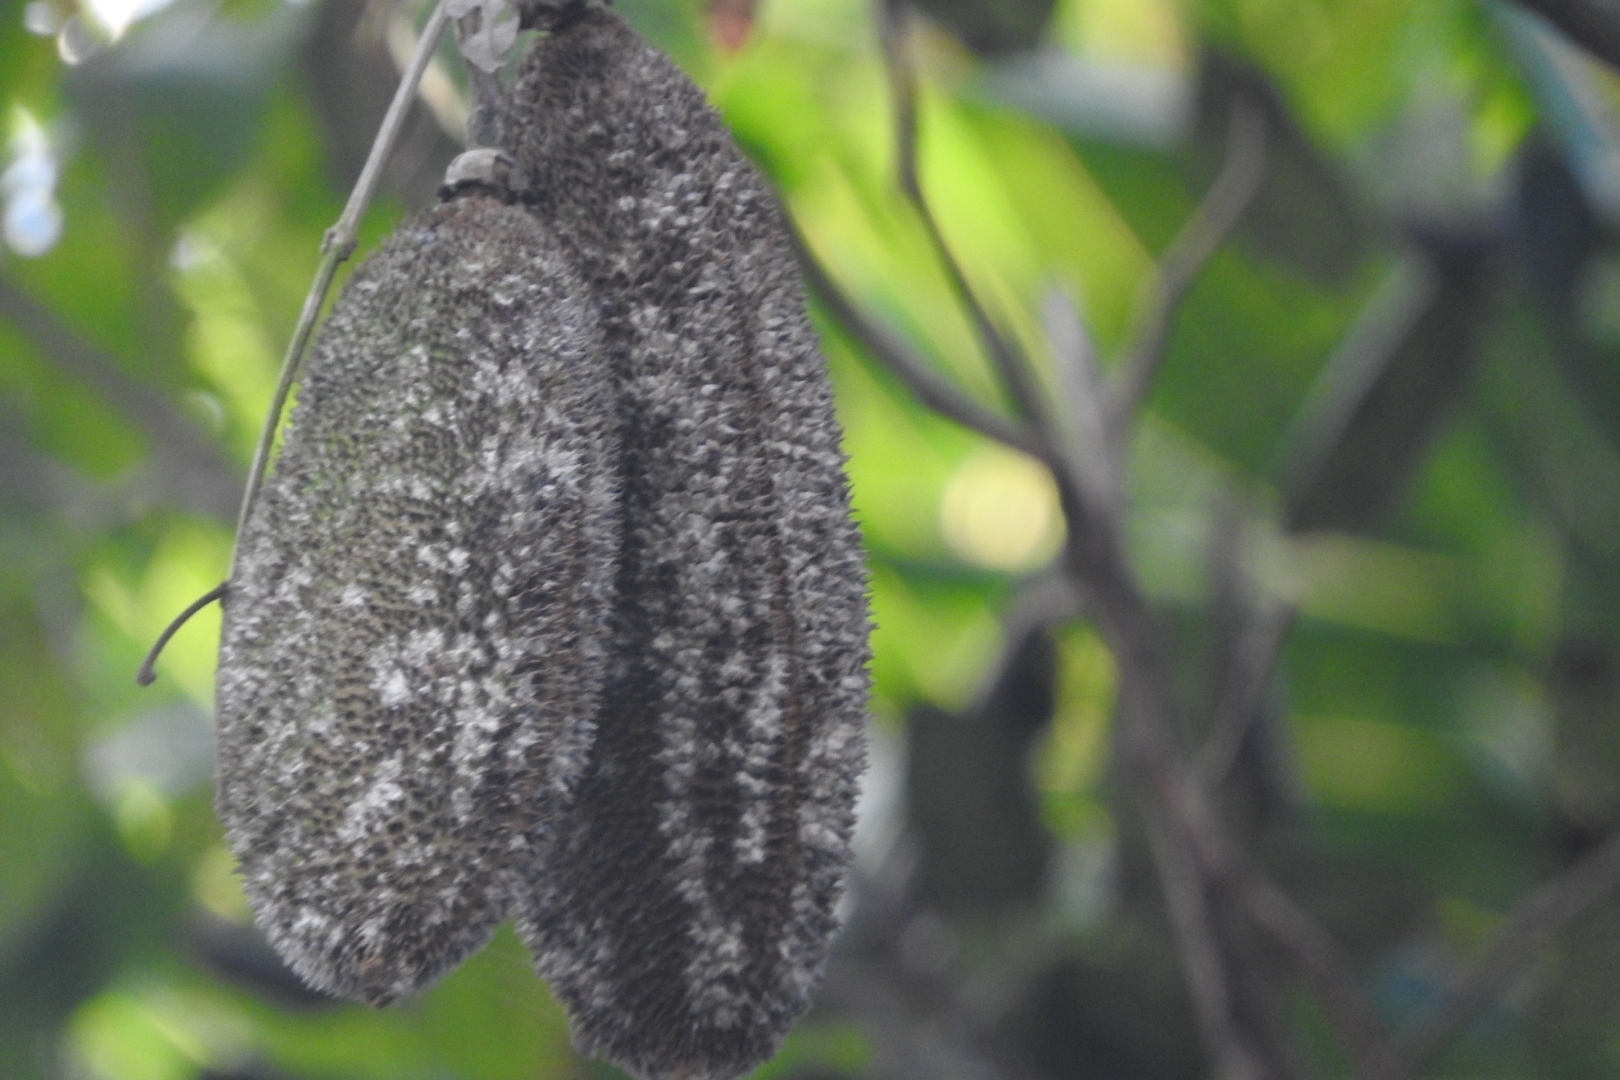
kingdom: Plantae
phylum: Tracheophyta
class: Magnoliopsida
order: Lamiales
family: Bignoniaceae
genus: Mansoa
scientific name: Mansoa verrucifera
